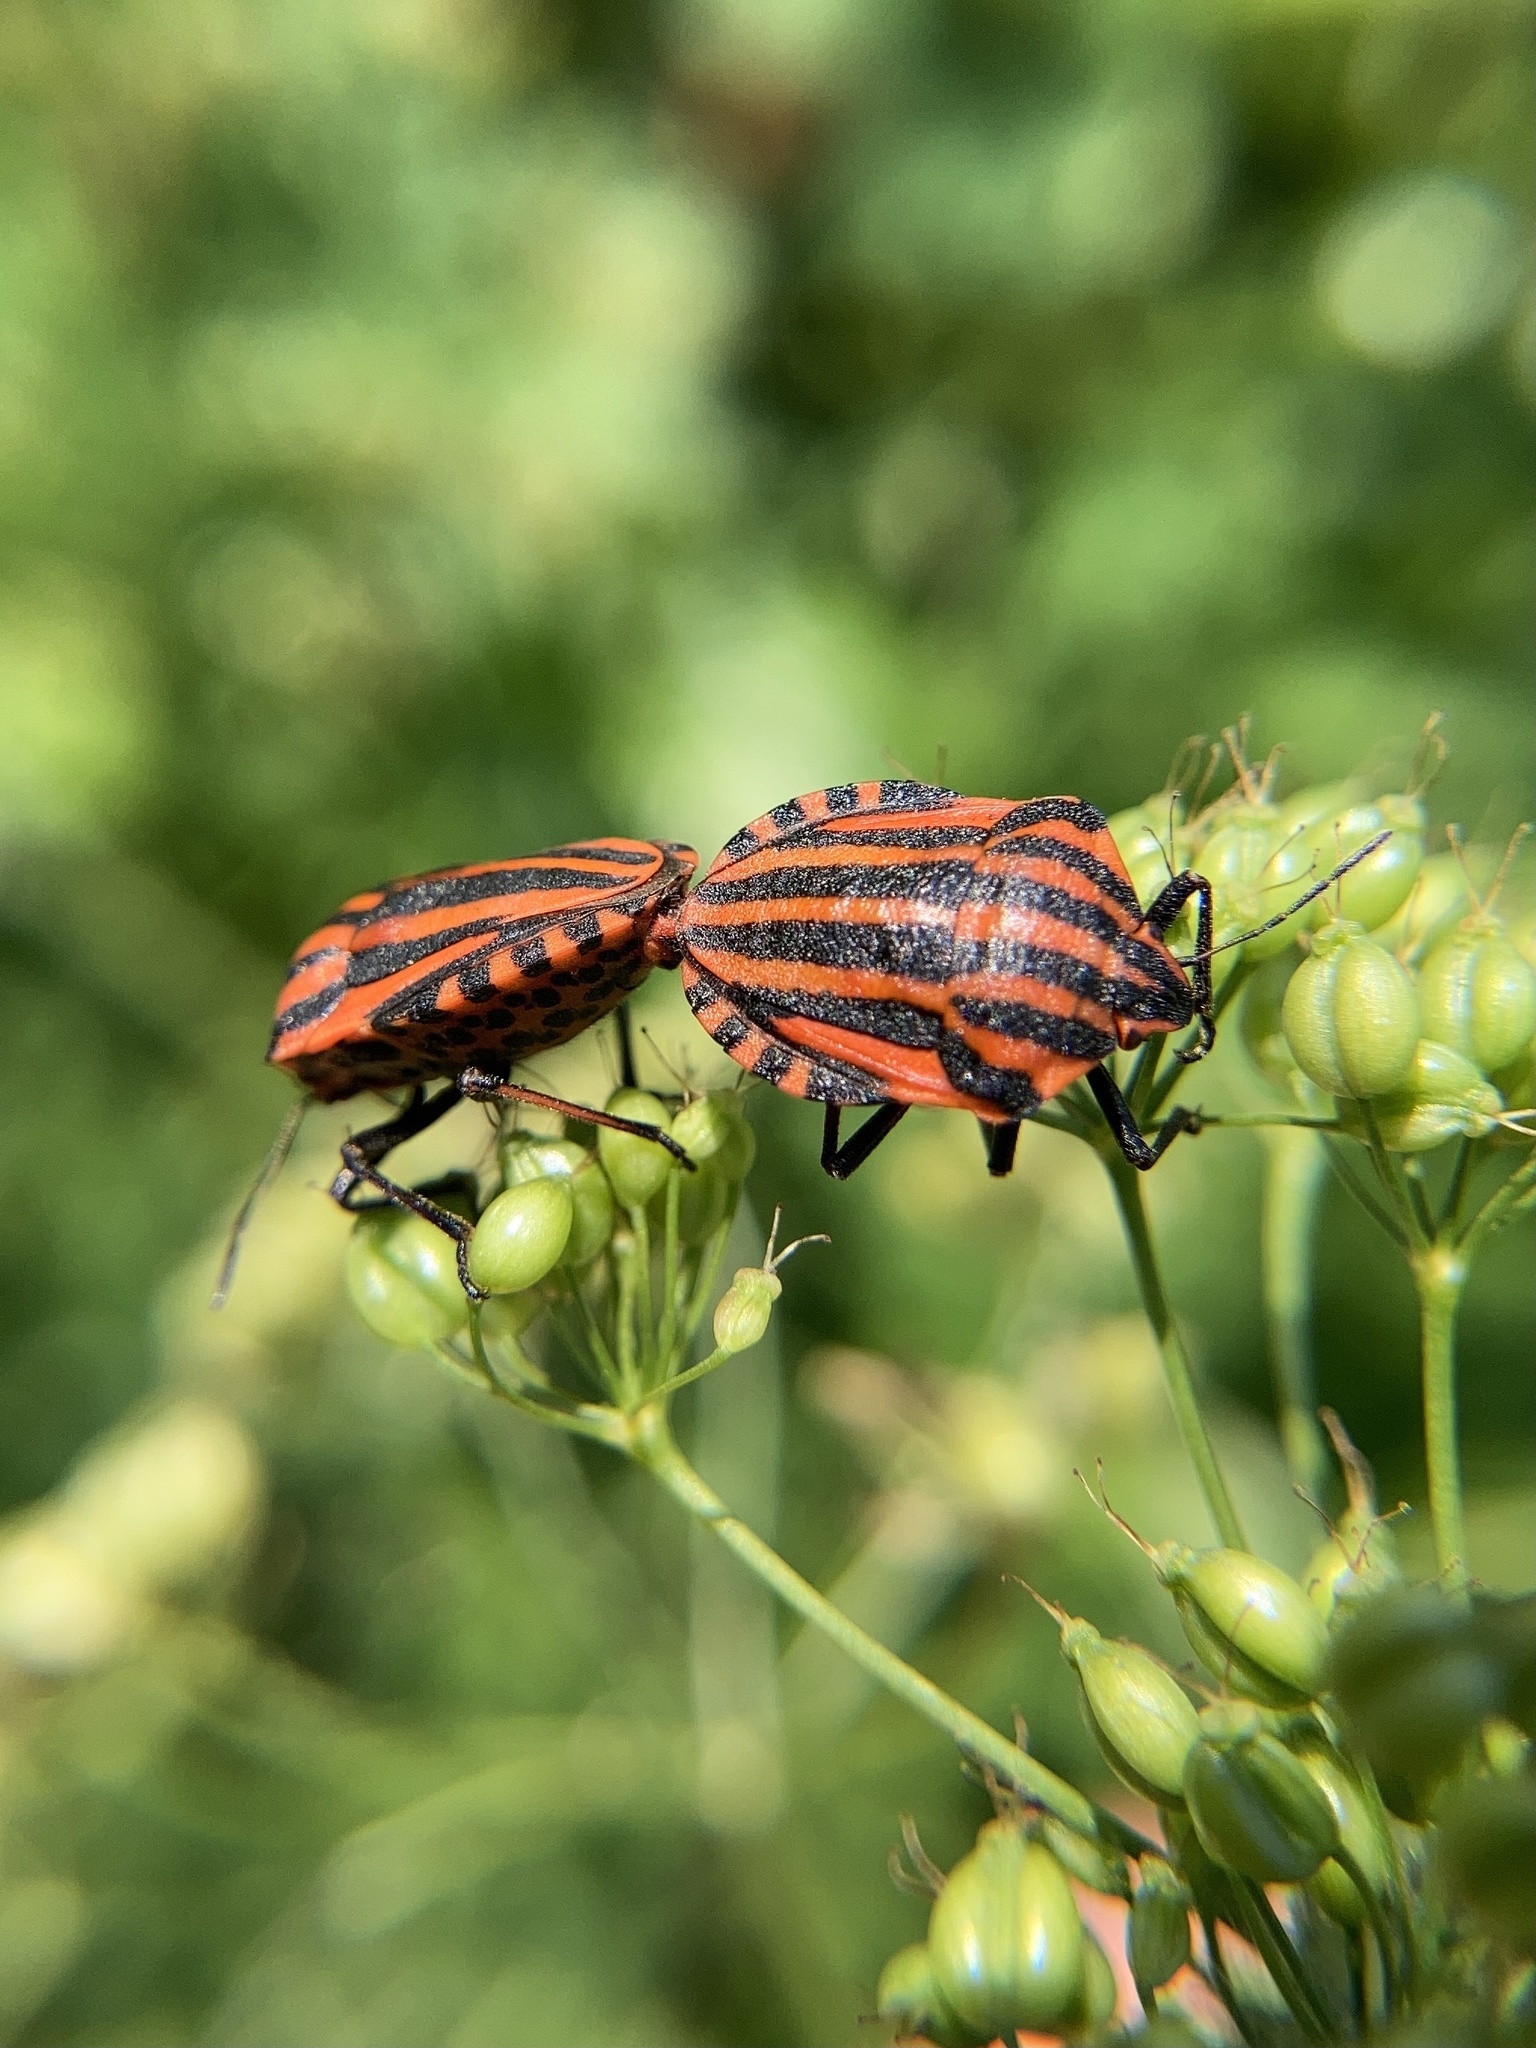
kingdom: Animalia
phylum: Arthropoda
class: Insecta
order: Hemiptera
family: Pentatomidae
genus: Graphosoma
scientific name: Graphosoma italicum
